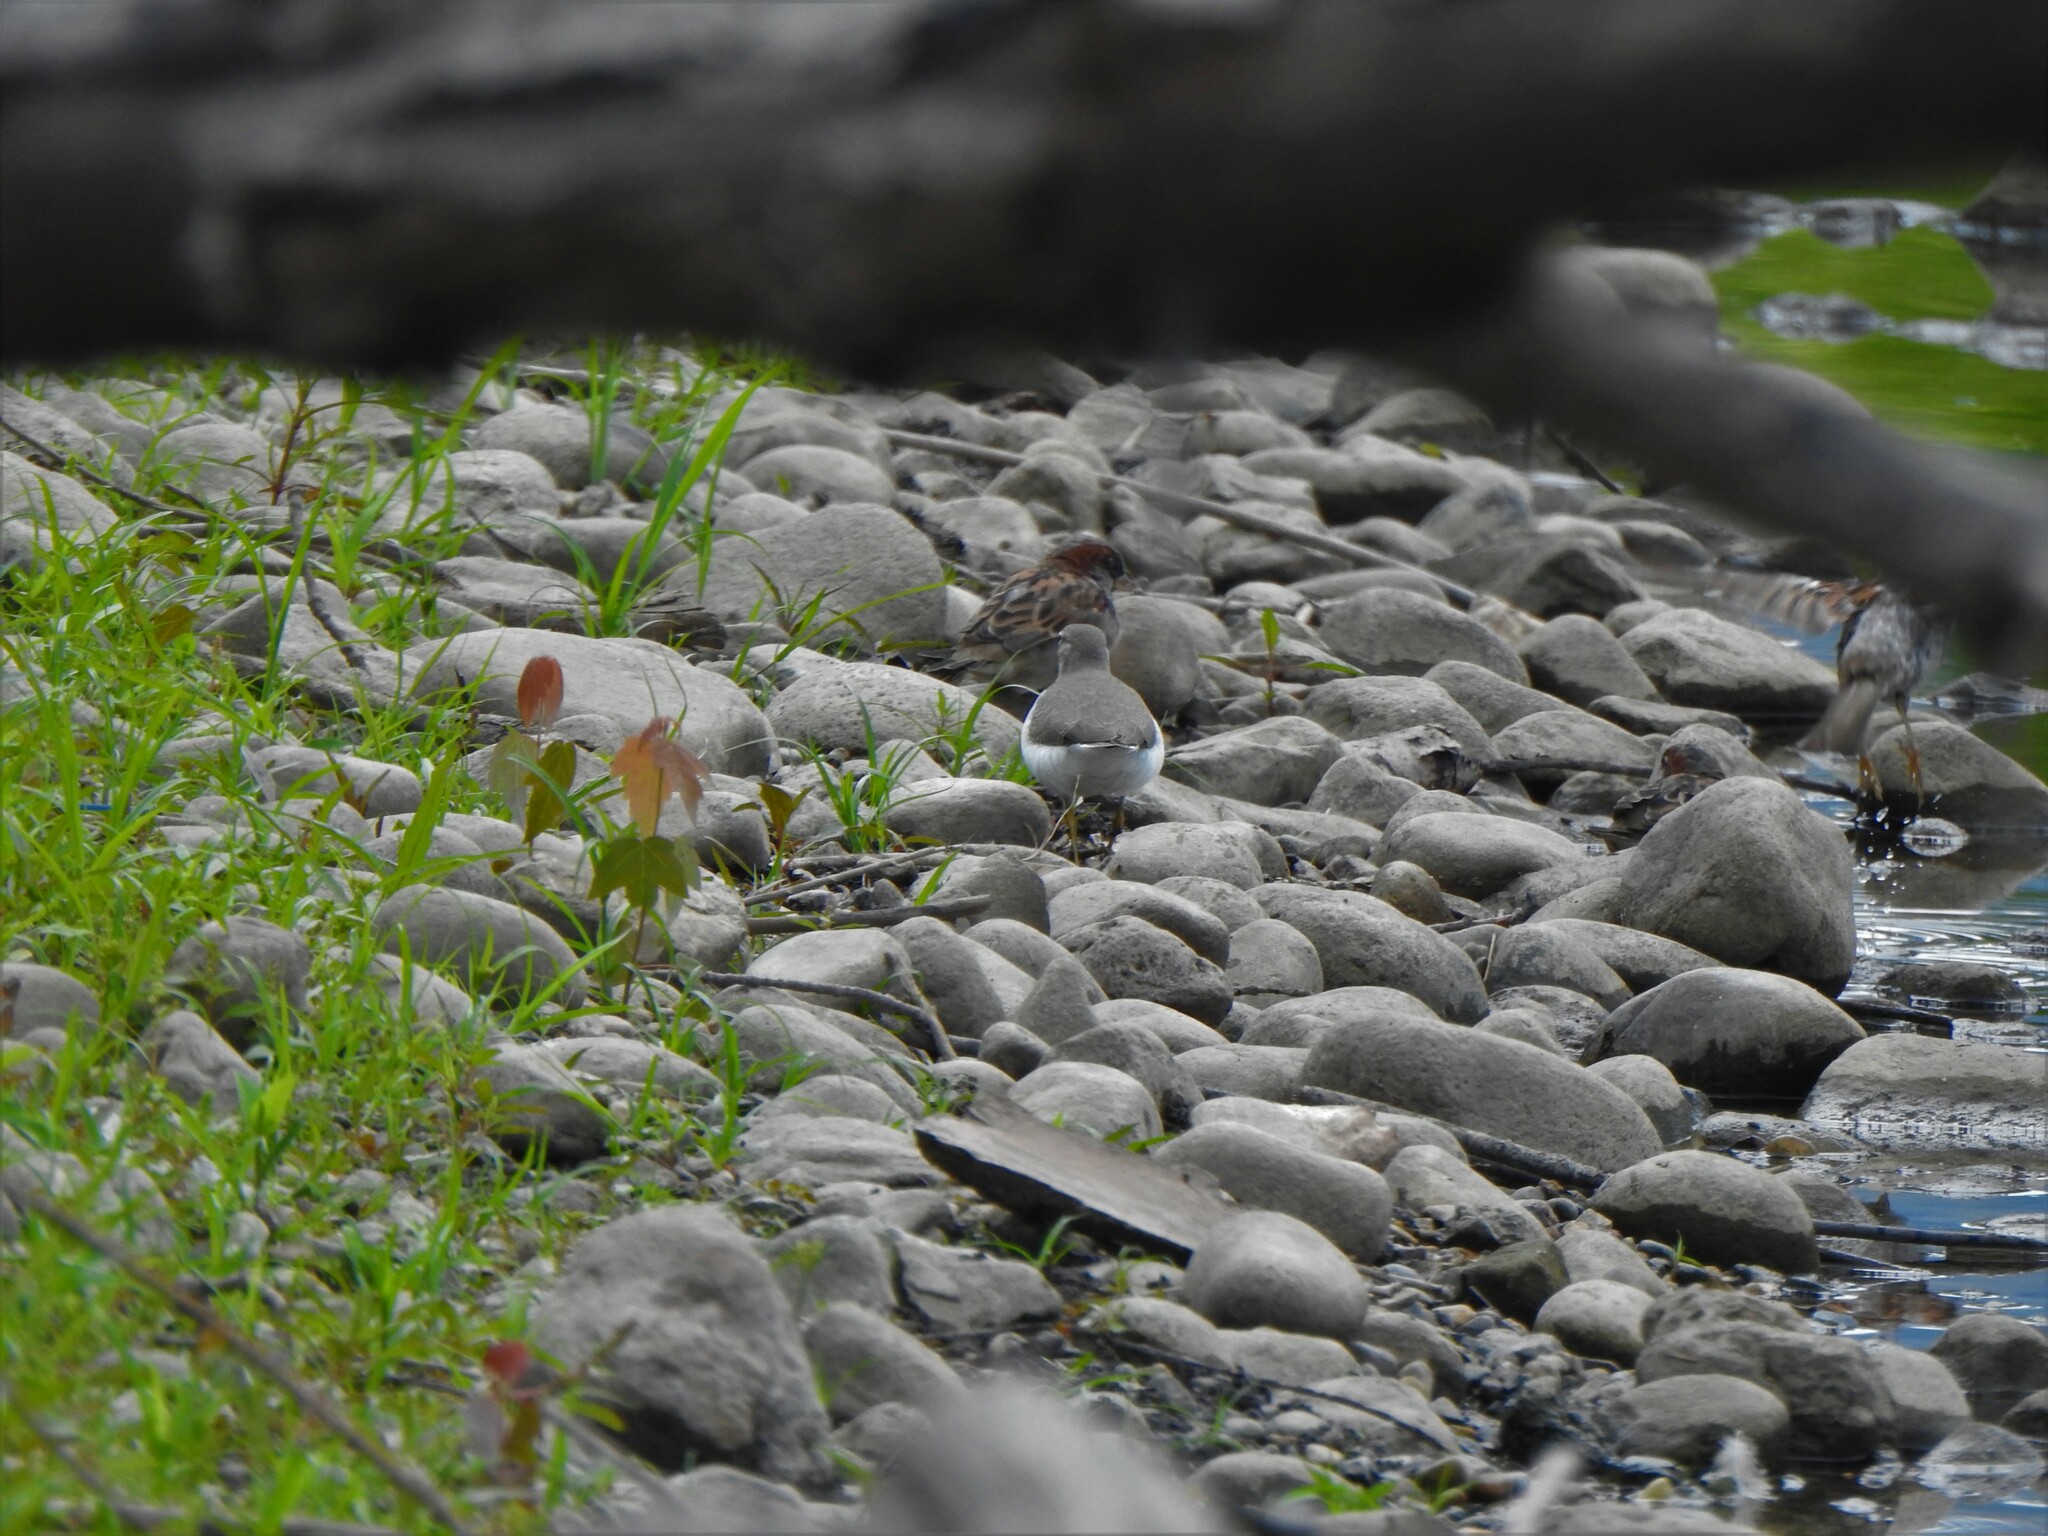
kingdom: Animalia
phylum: Chordata
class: Aves
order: Charadriiformes
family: Scolopacidae
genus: Actitis
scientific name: Actitis macularius
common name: Spotted sandpiper
